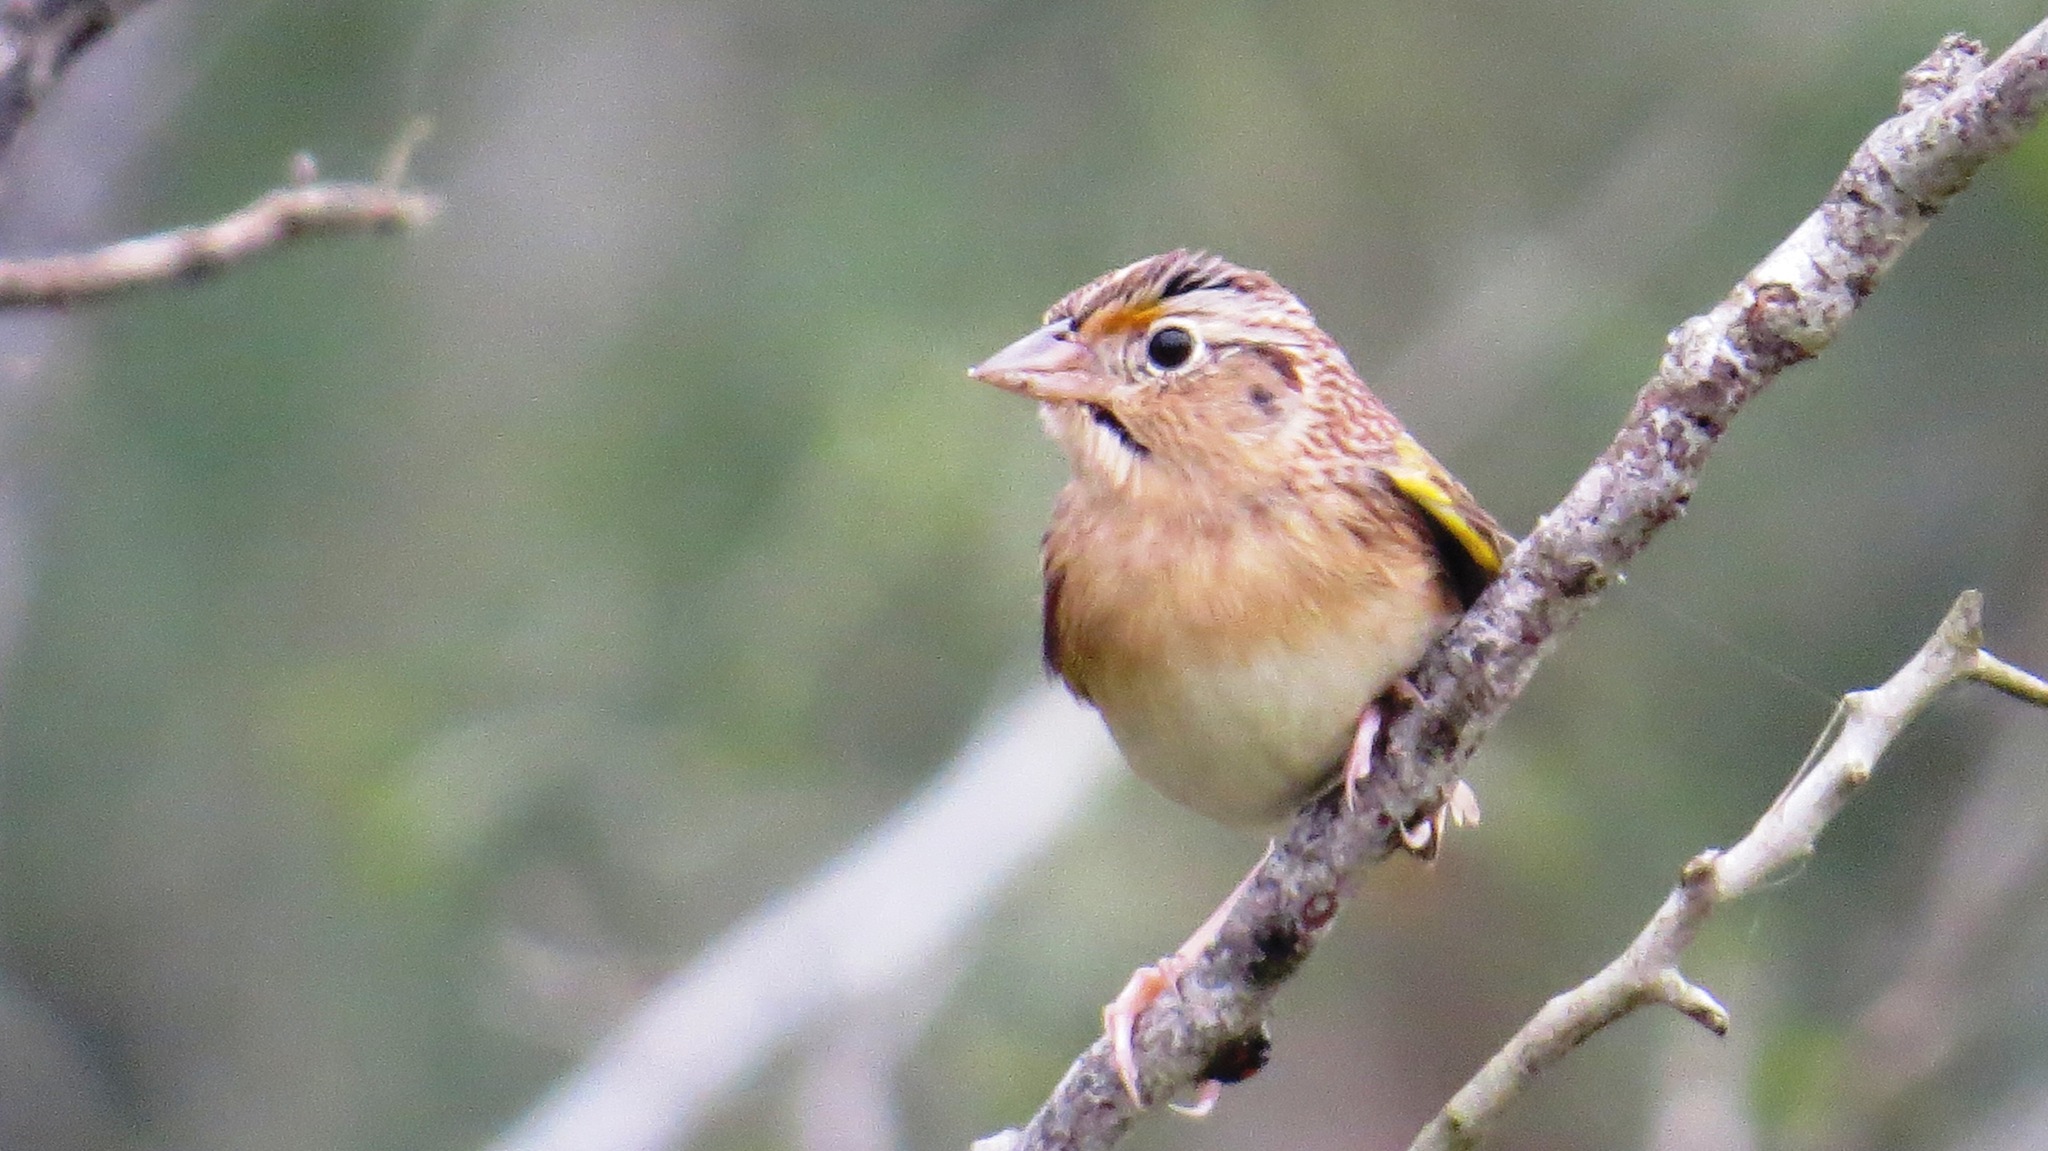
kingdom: Animalia
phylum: Chordata
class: Aves
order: Passeriformes
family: Passerellidae
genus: Ammodramus
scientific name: Ammodramus savannarum
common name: Grasshopper sparrow
